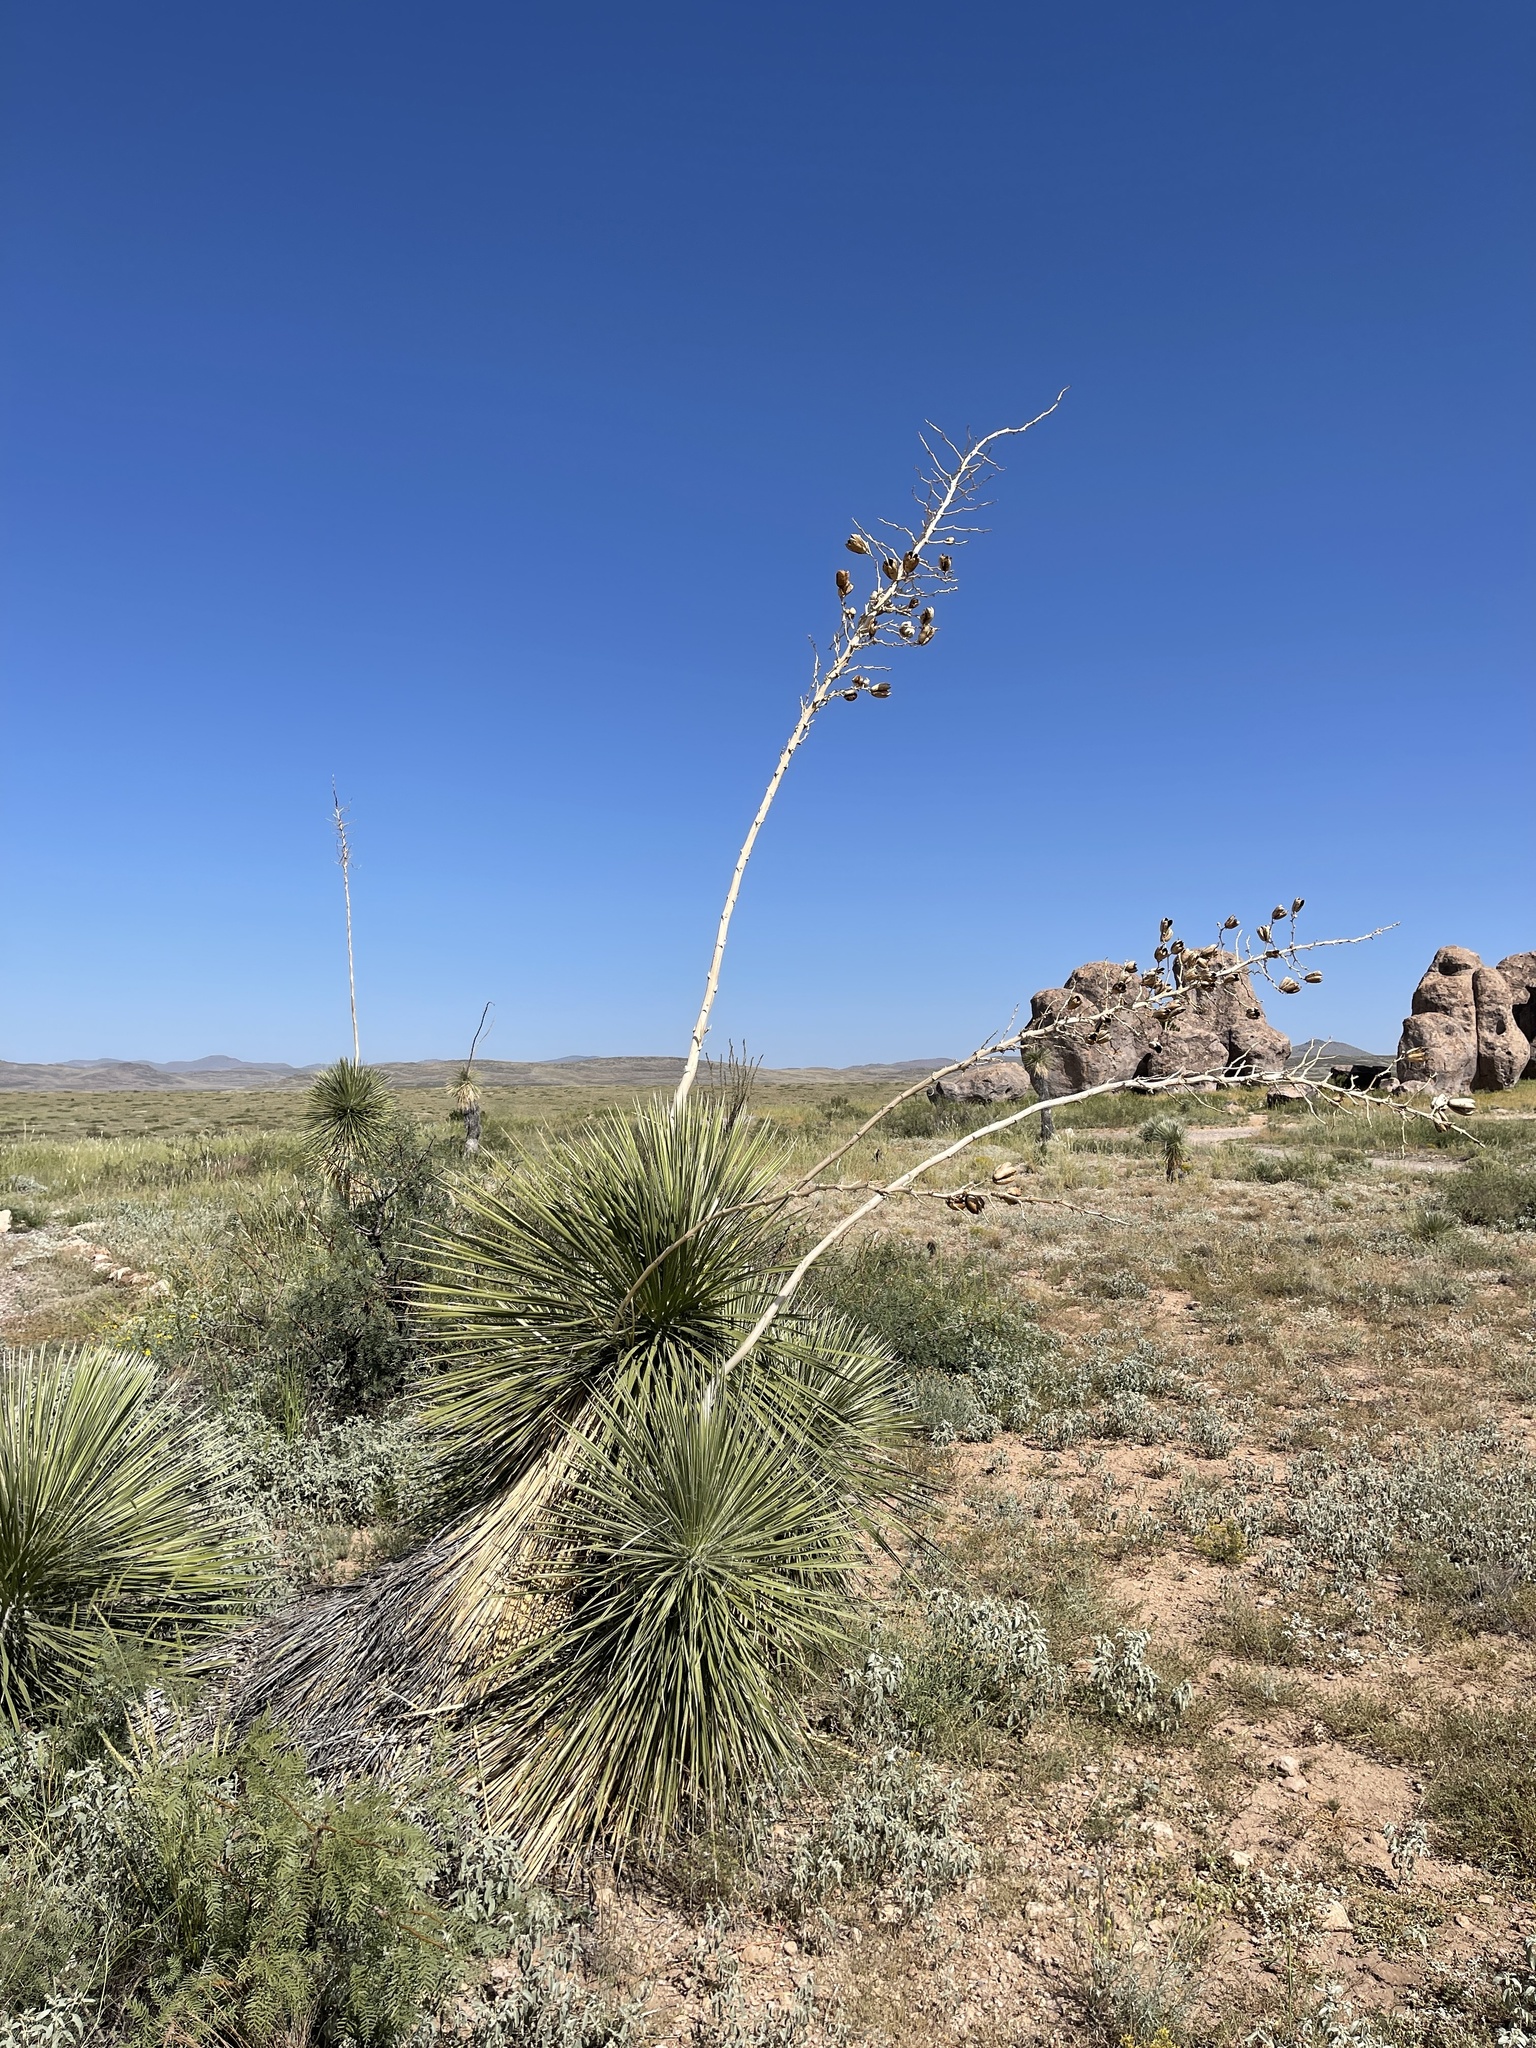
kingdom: Plantae
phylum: Tracheophyta
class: Liliopsida
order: Asparagales
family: Asparagaceae
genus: Yucca
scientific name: Yucca elata
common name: Palmella
